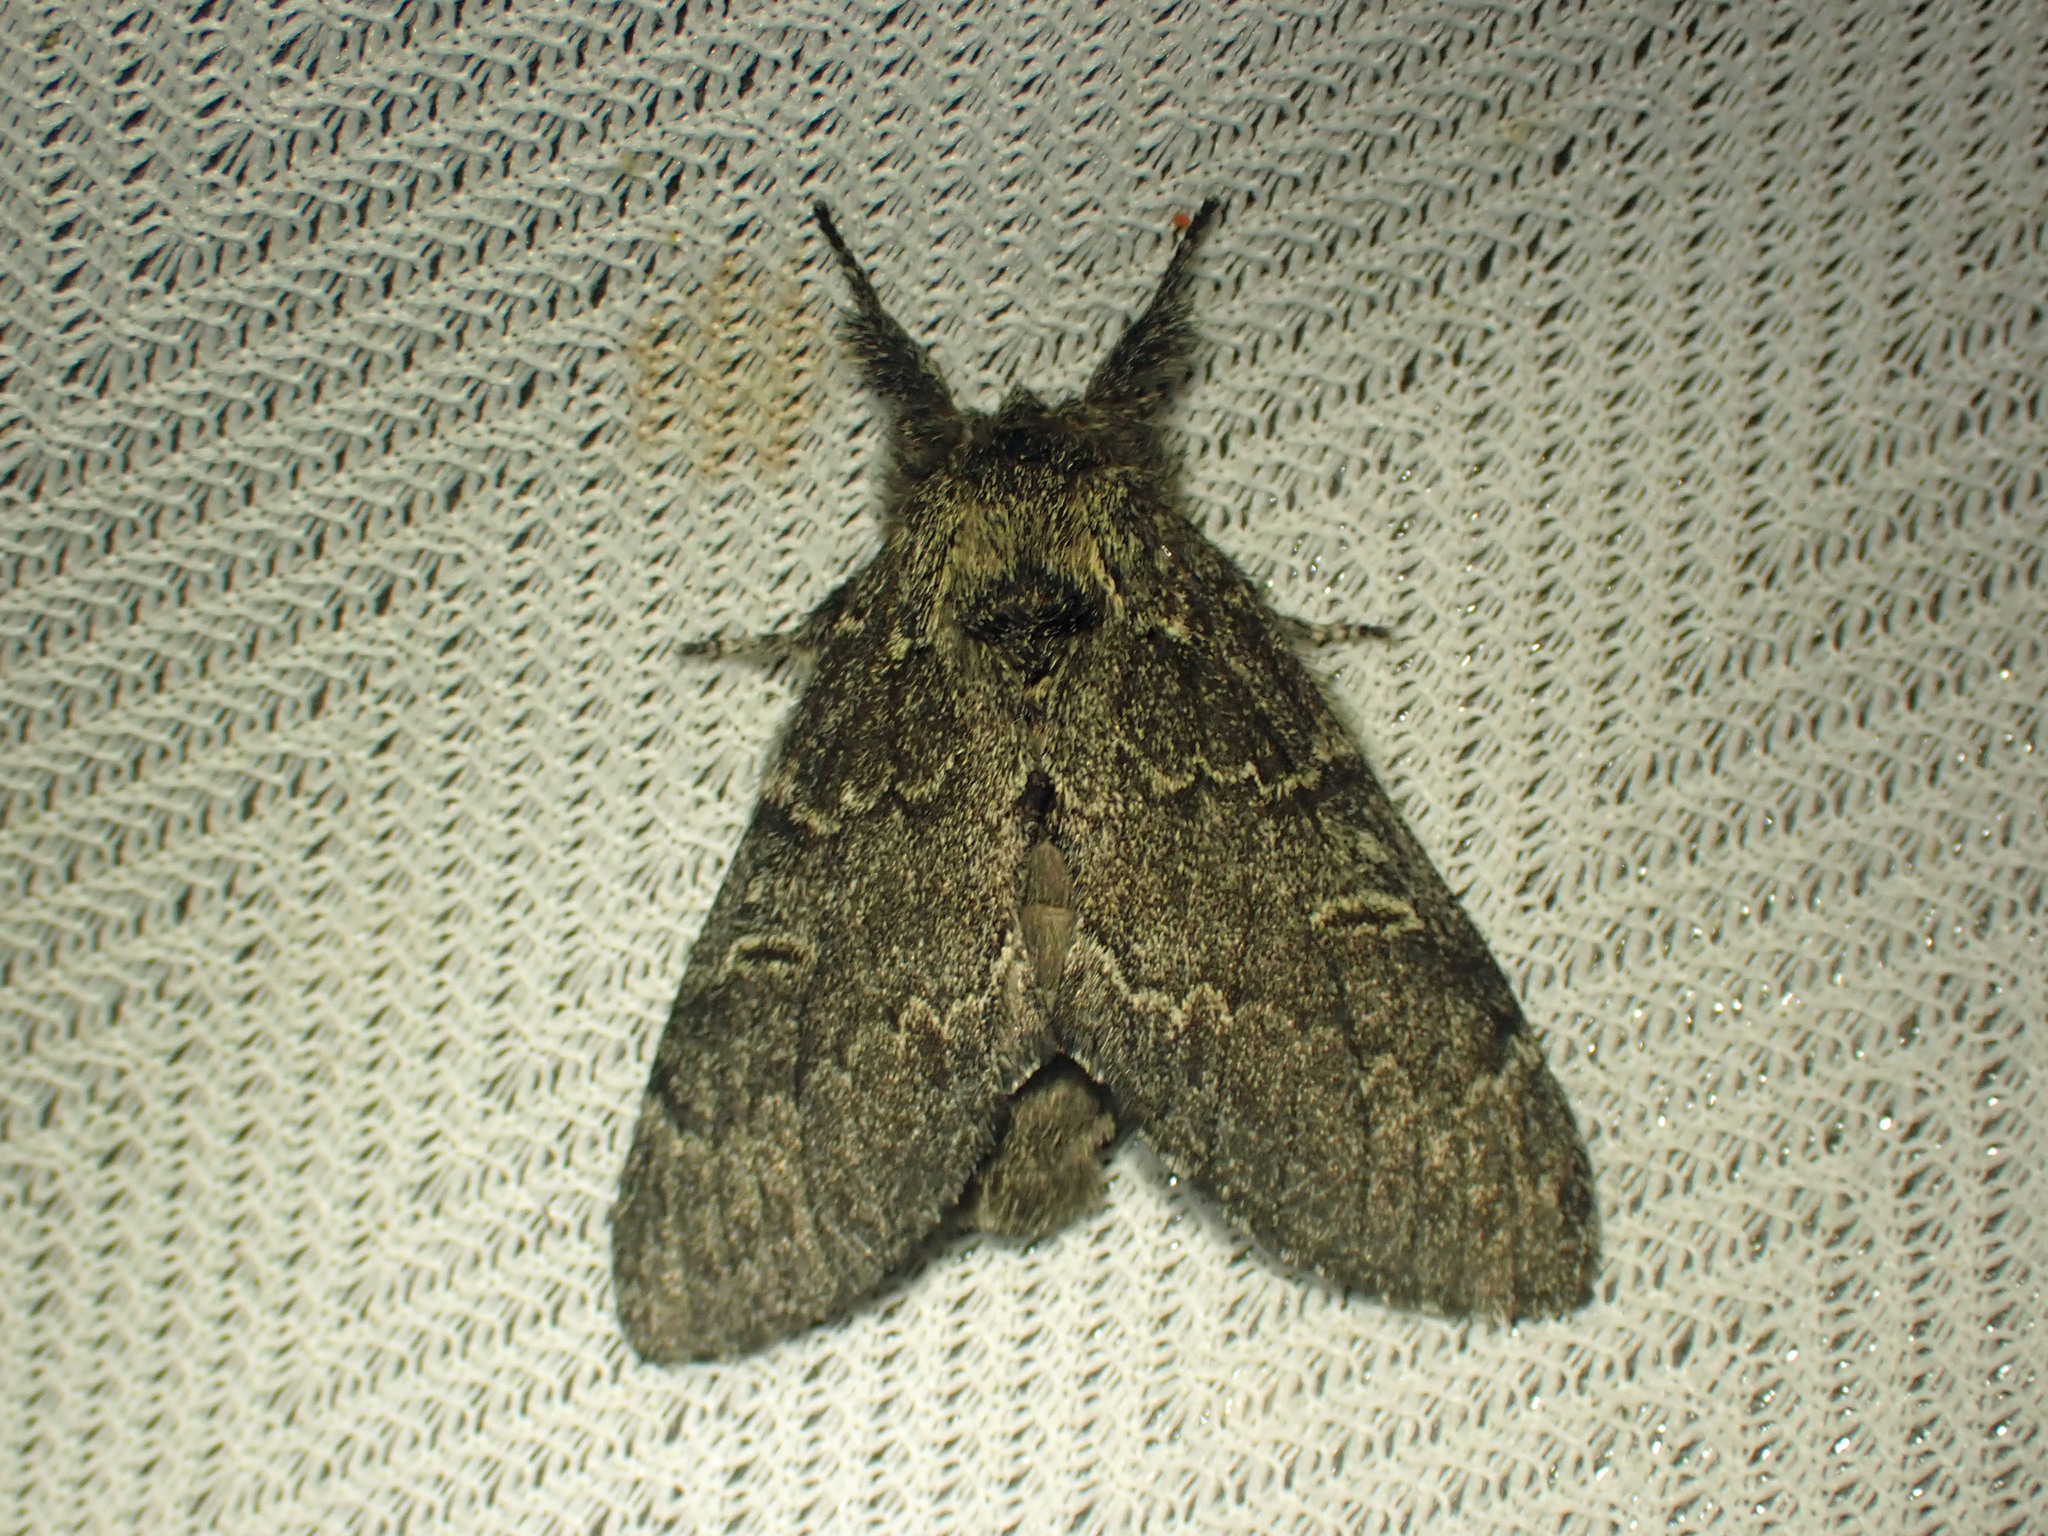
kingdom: Animalia
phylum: Arthropoda
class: Insecta
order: Lepidoptera
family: Notodontidae
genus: Notodonta
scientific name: Notodonta torva
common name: Large dark prominent
